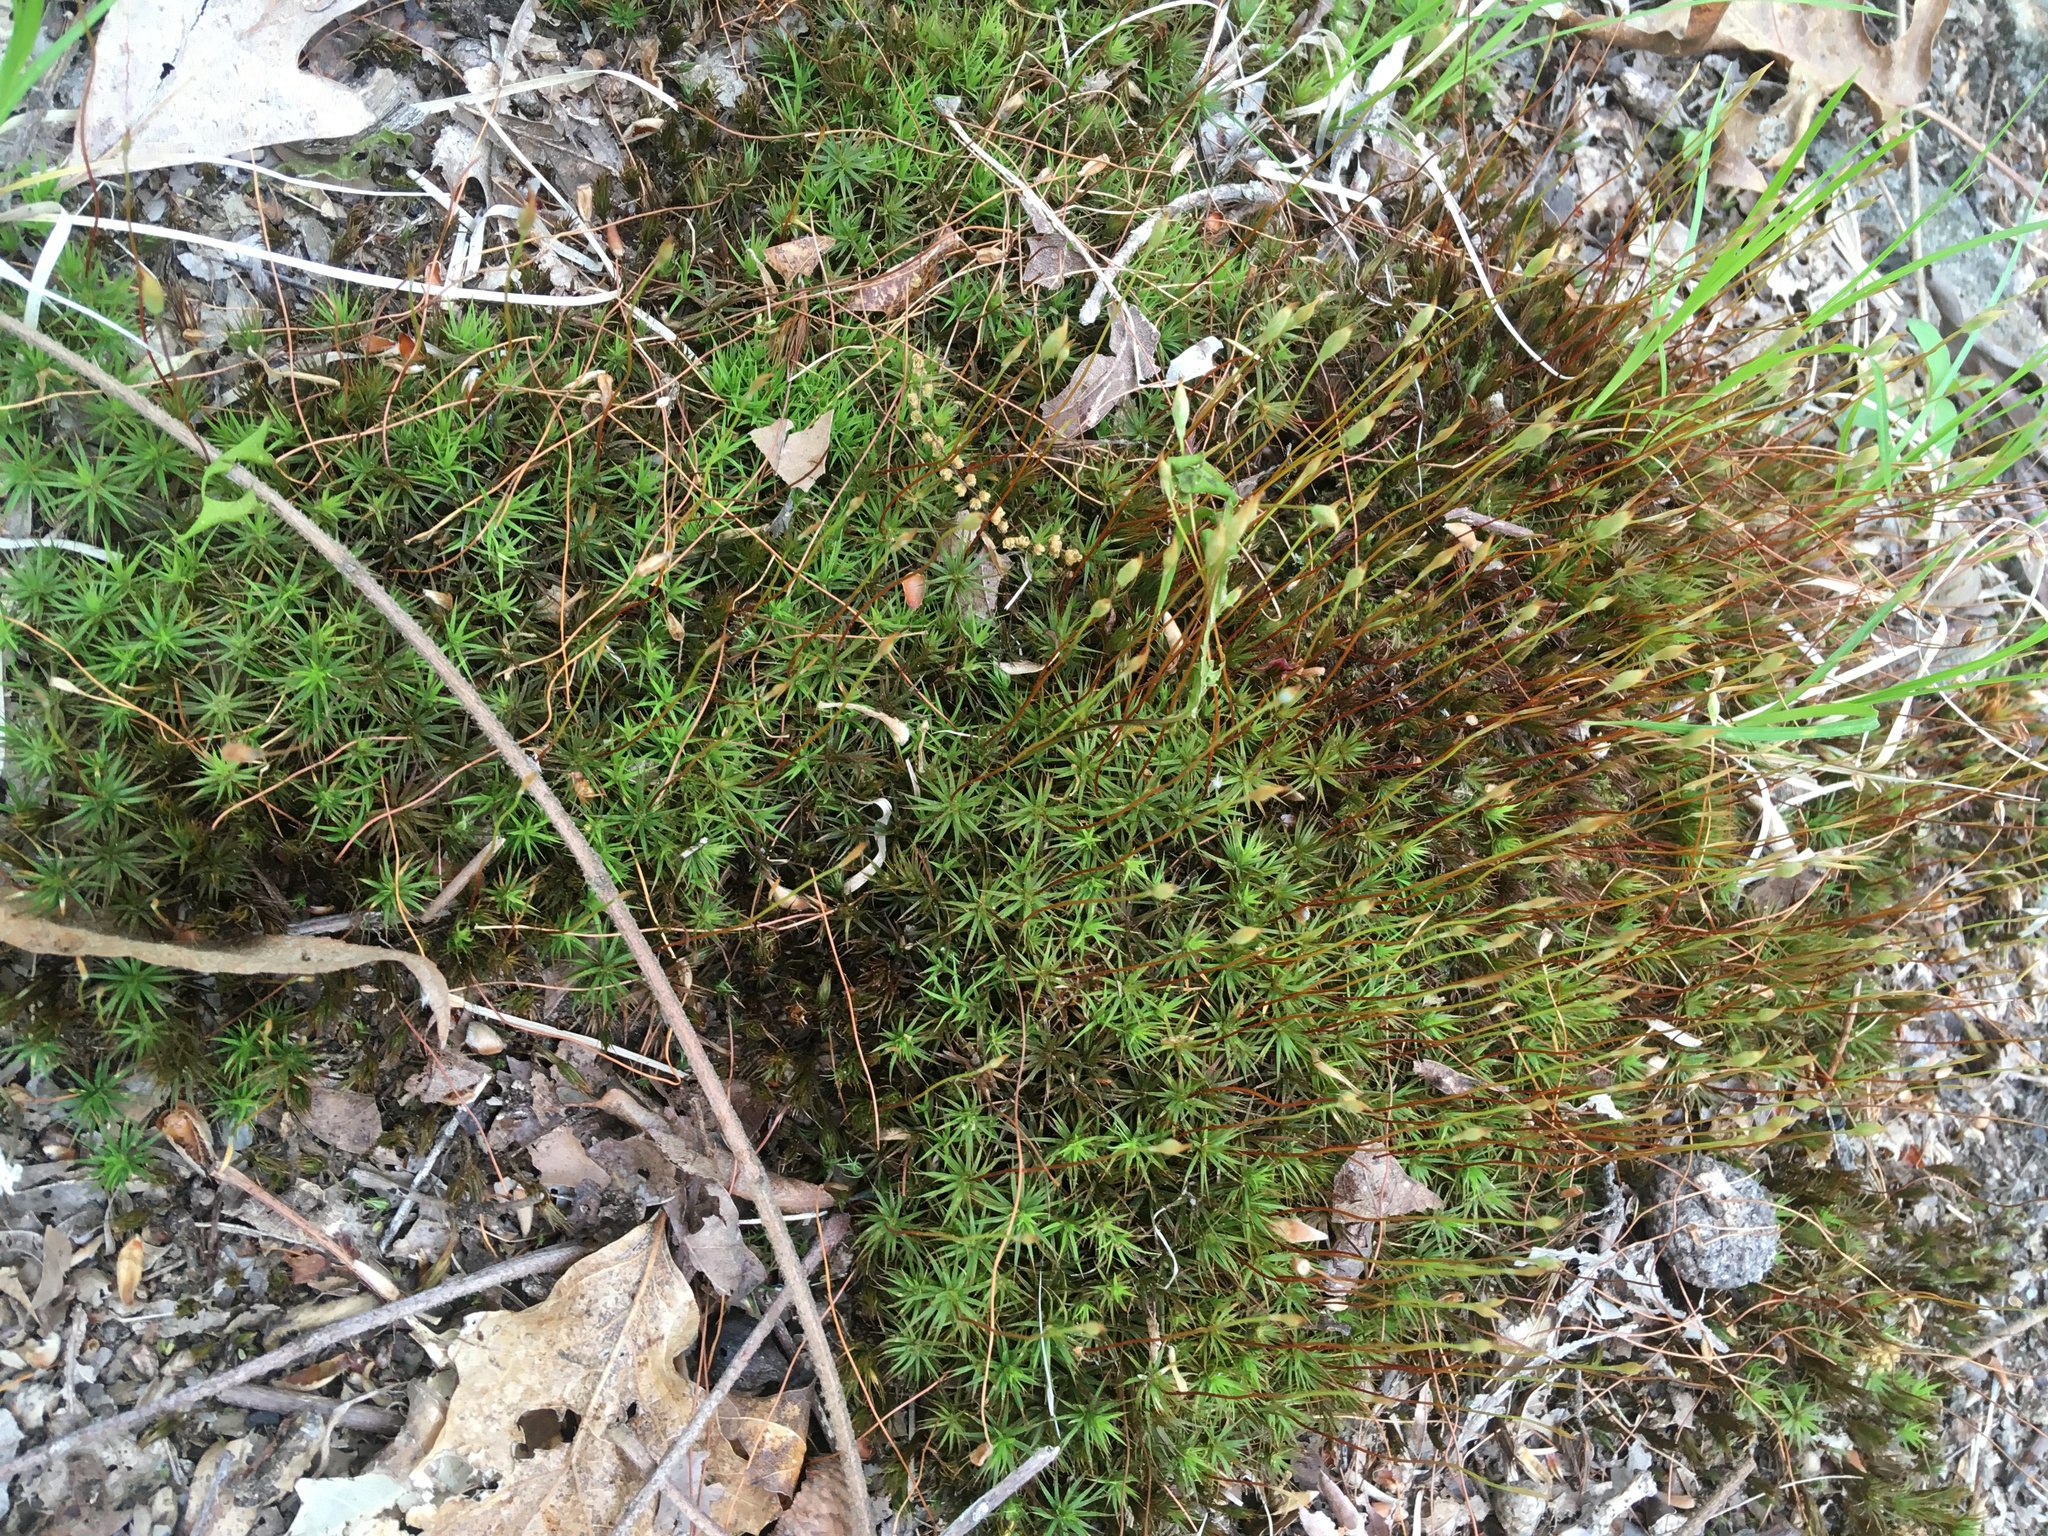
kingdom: Plantae
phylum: Bryophyta
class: Polytrichopsida
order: Polytrichales
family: Polytrichaceae
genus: Polytrichum
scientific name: Polytrichum commune
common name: Common haircap
